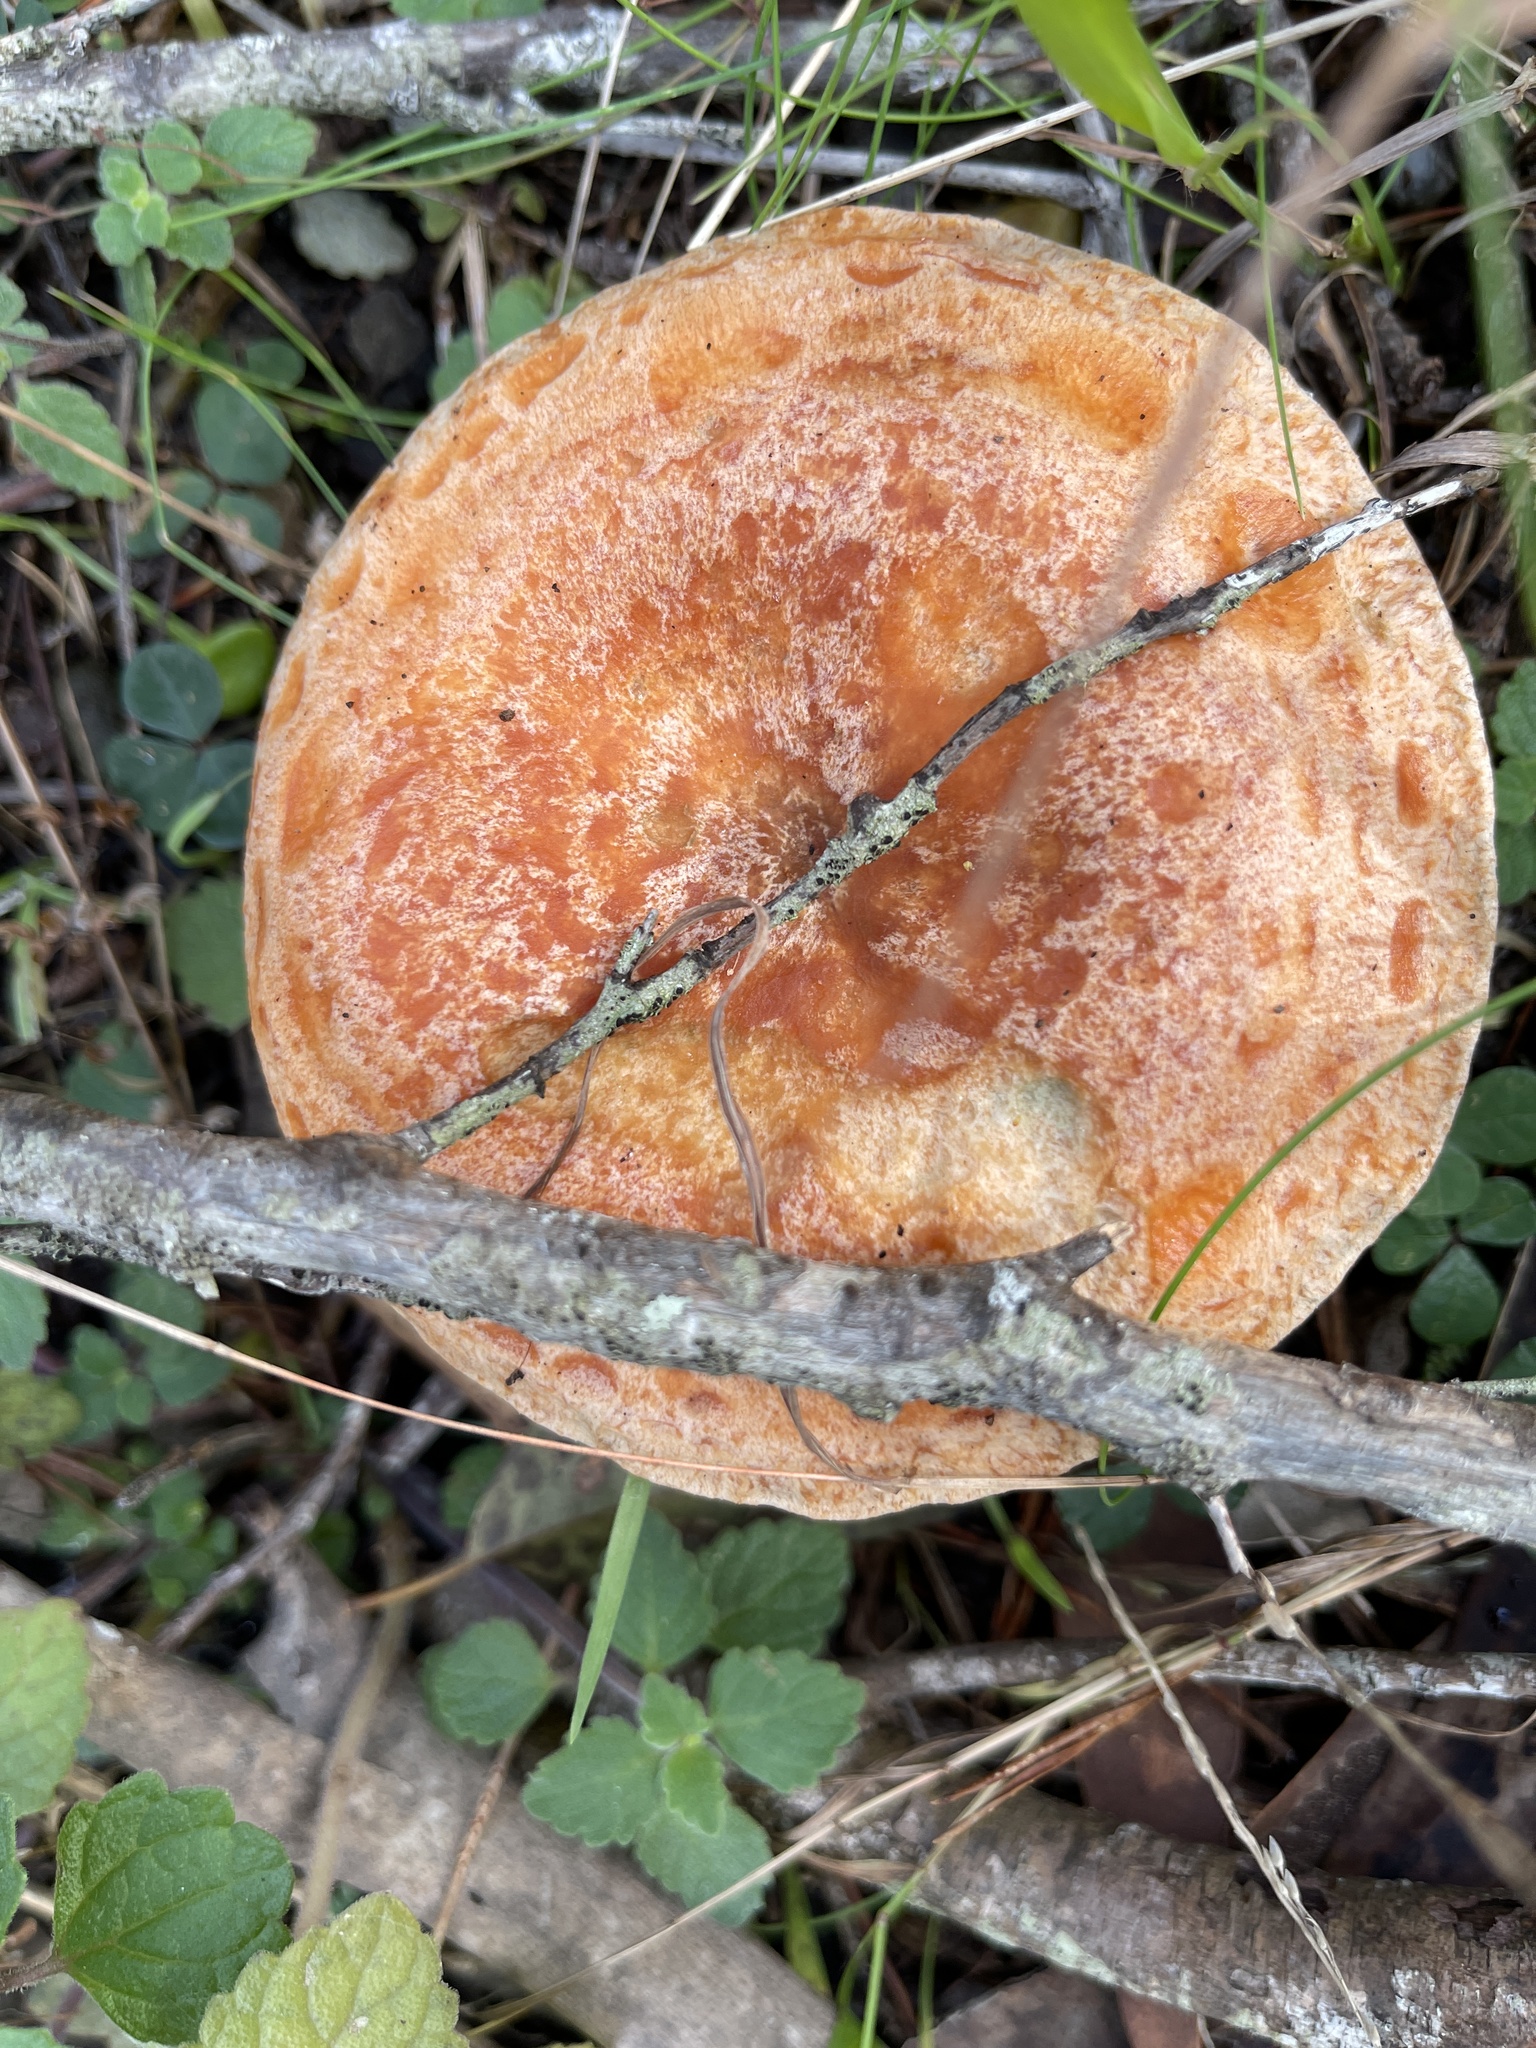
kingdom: Fungi
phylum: Basidiomycota
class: Agaricomycetes
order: Russulales
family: Russulaceae
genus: Lactarius
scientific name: Lactarius deliciosus
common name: Saffron milk-cap
